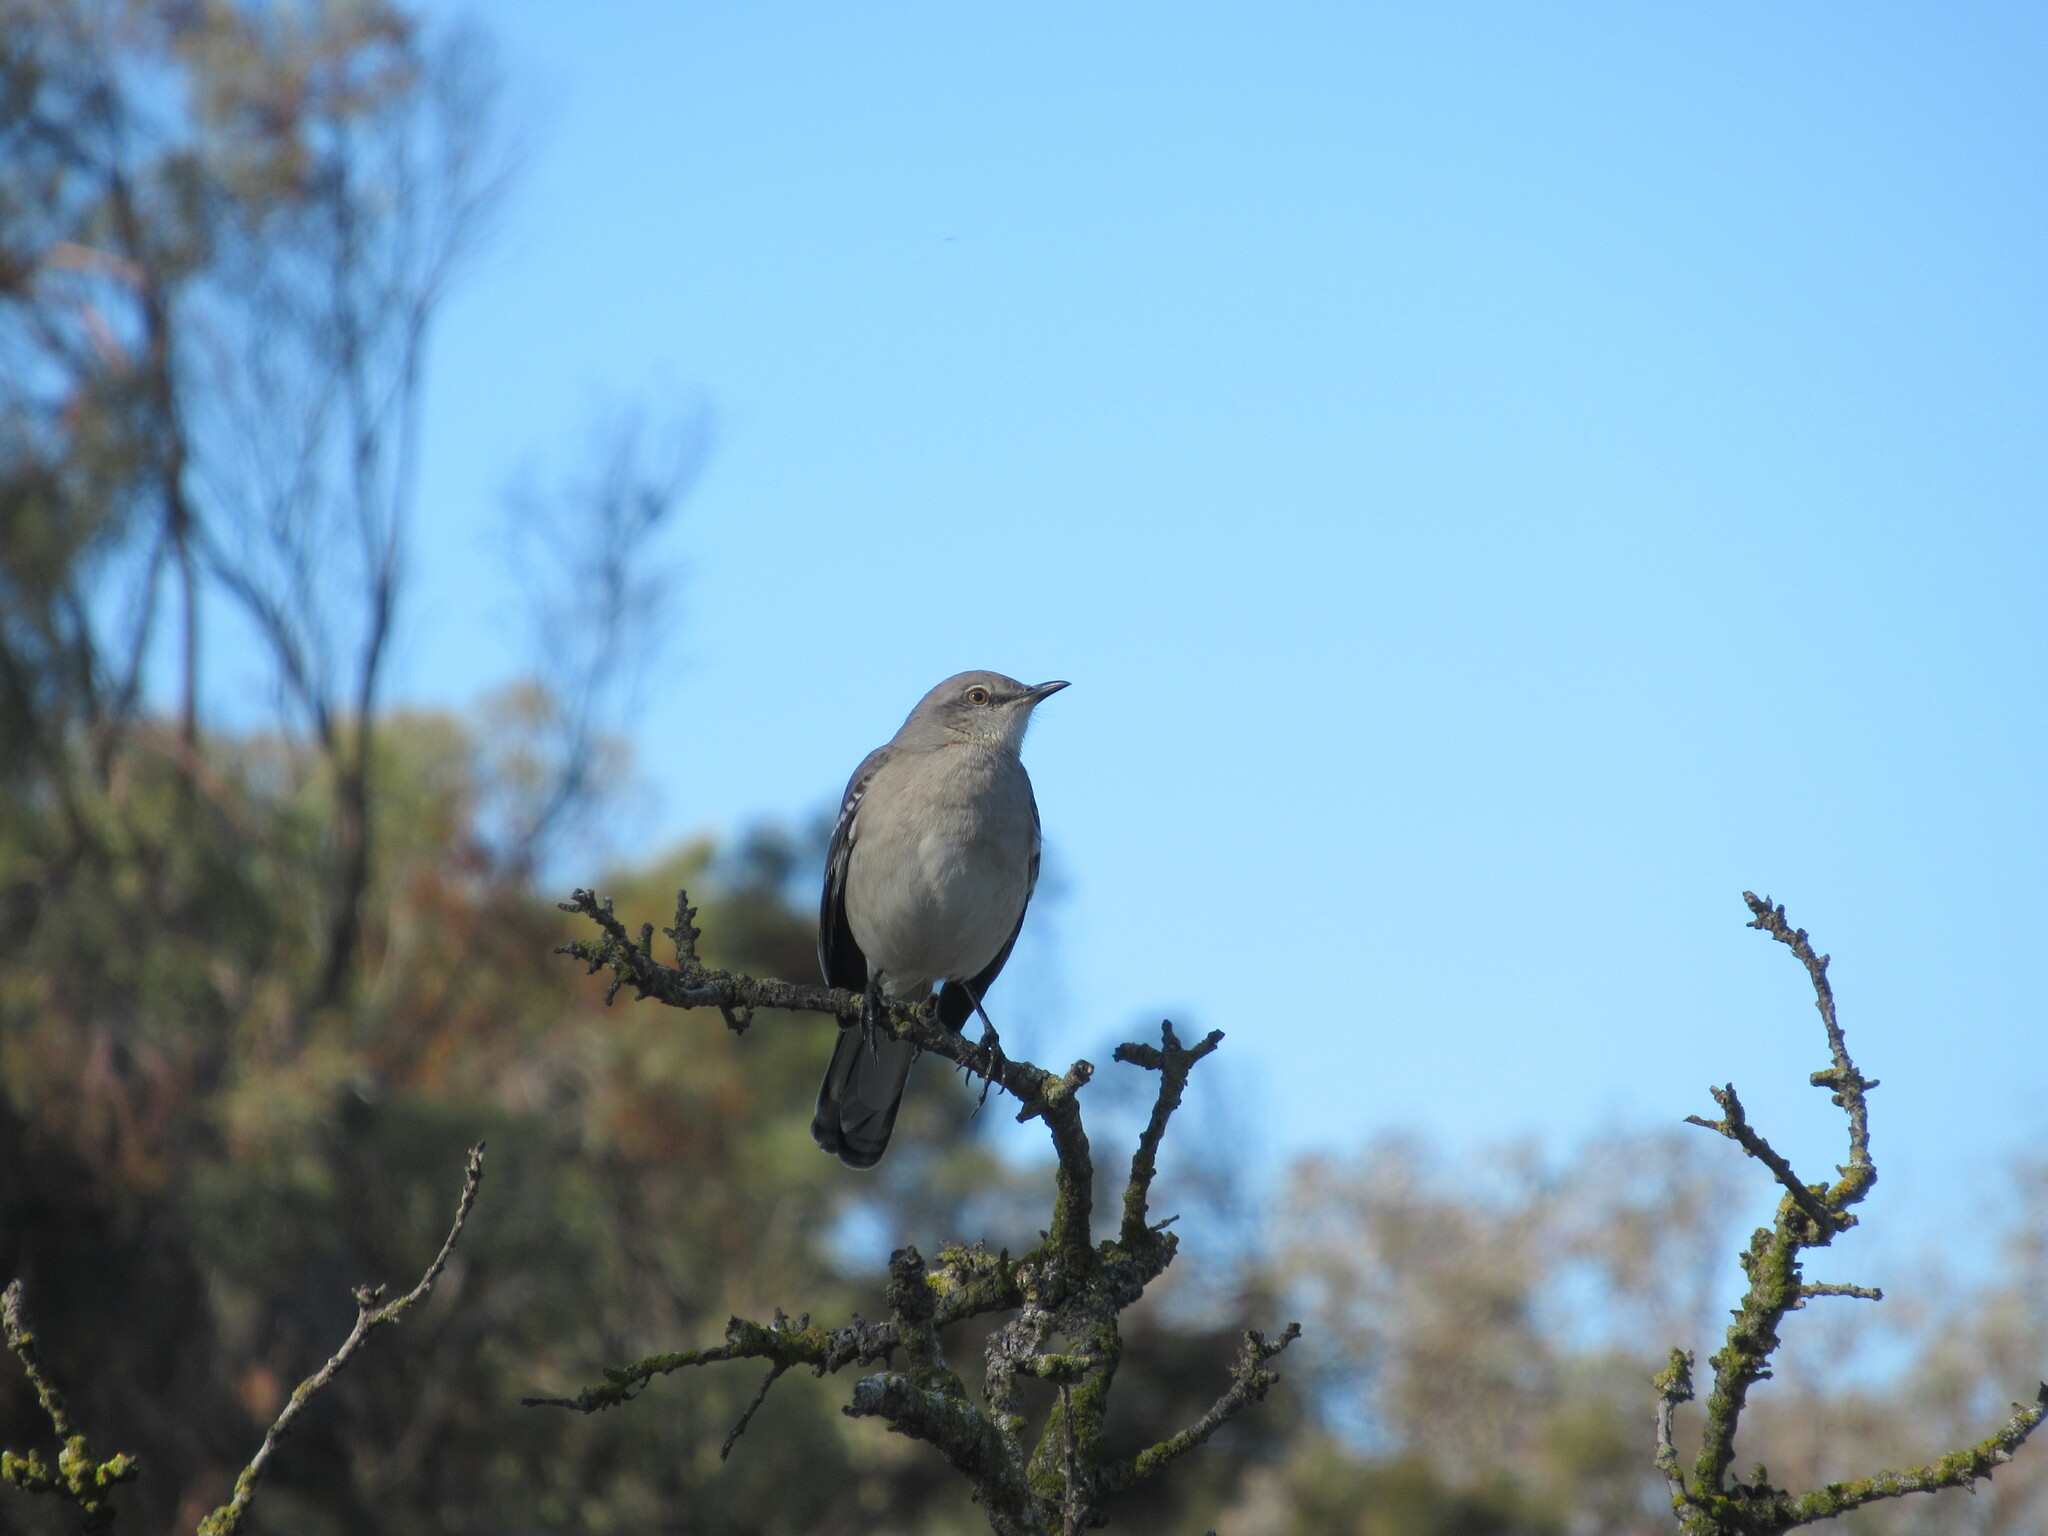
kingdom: Animalia
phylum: Chordata
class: Aves
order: Passeriformes
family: Mimidae
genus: Mimus
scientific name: Mimus polyglottos
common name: Northern mockingbird
